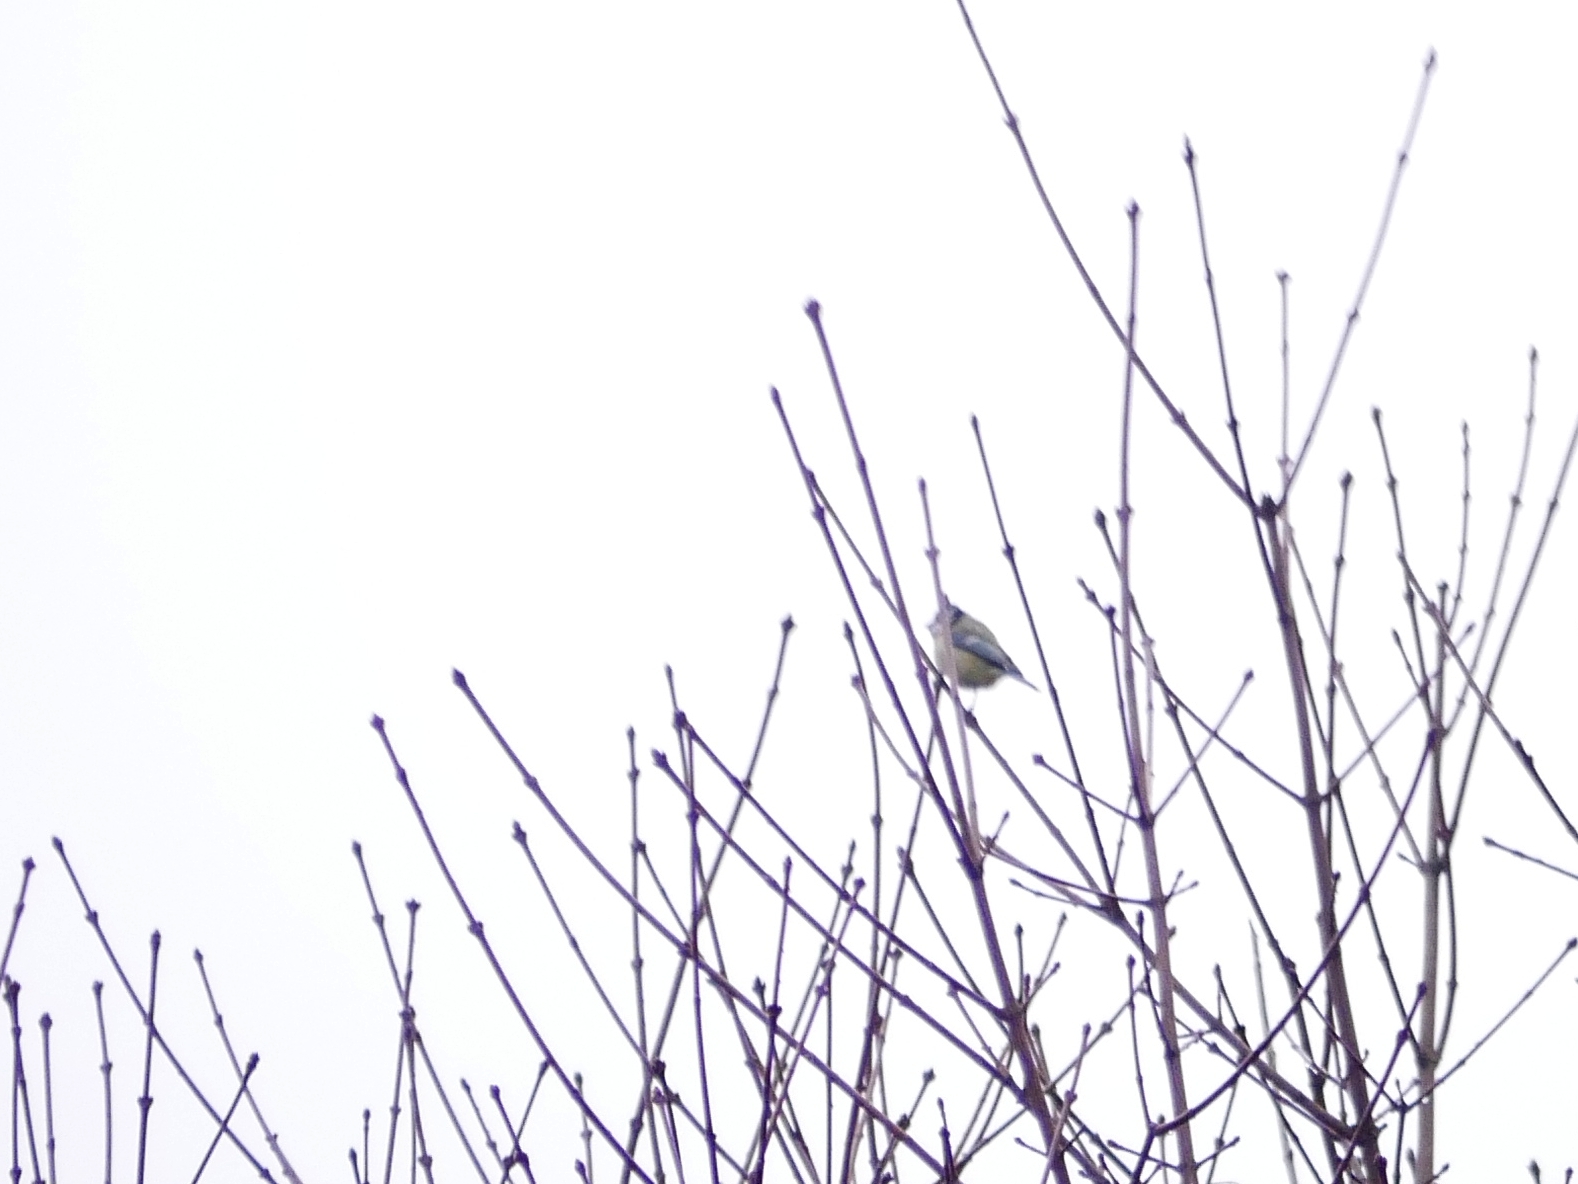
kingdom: Animalia
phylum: Chordata
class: Aves
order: Passeriformes
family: Paridae
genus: Cyanistes
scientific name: Cyanistes caeruleus
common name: Eurasian blue tit
